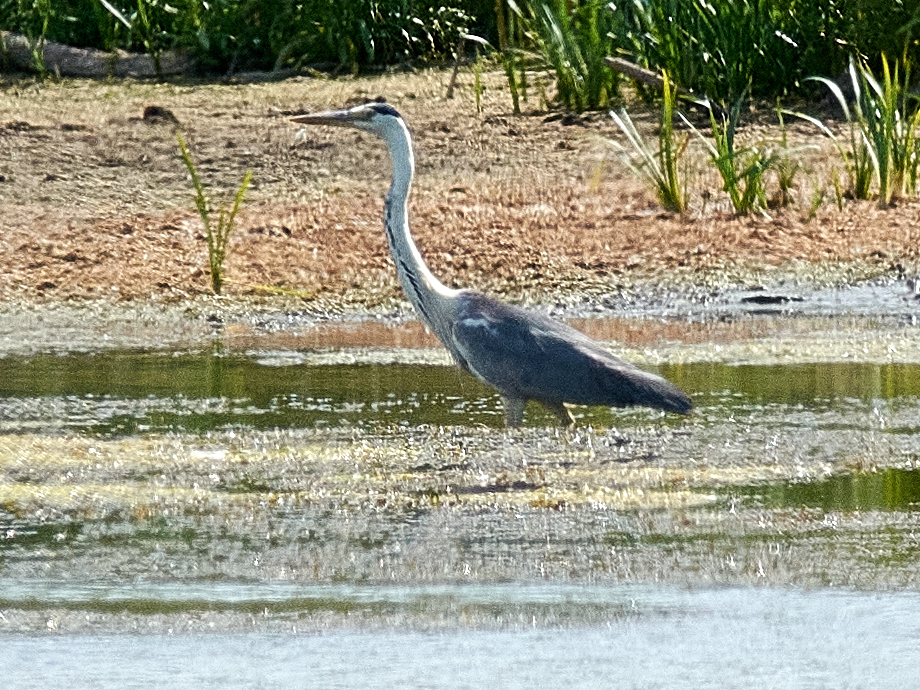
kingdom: Animalia
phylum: Chordata
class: Aves
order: Pelecaniformes
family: Ardeidae
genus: Ardea
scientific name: Ardea cinerea
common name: Grey heron
